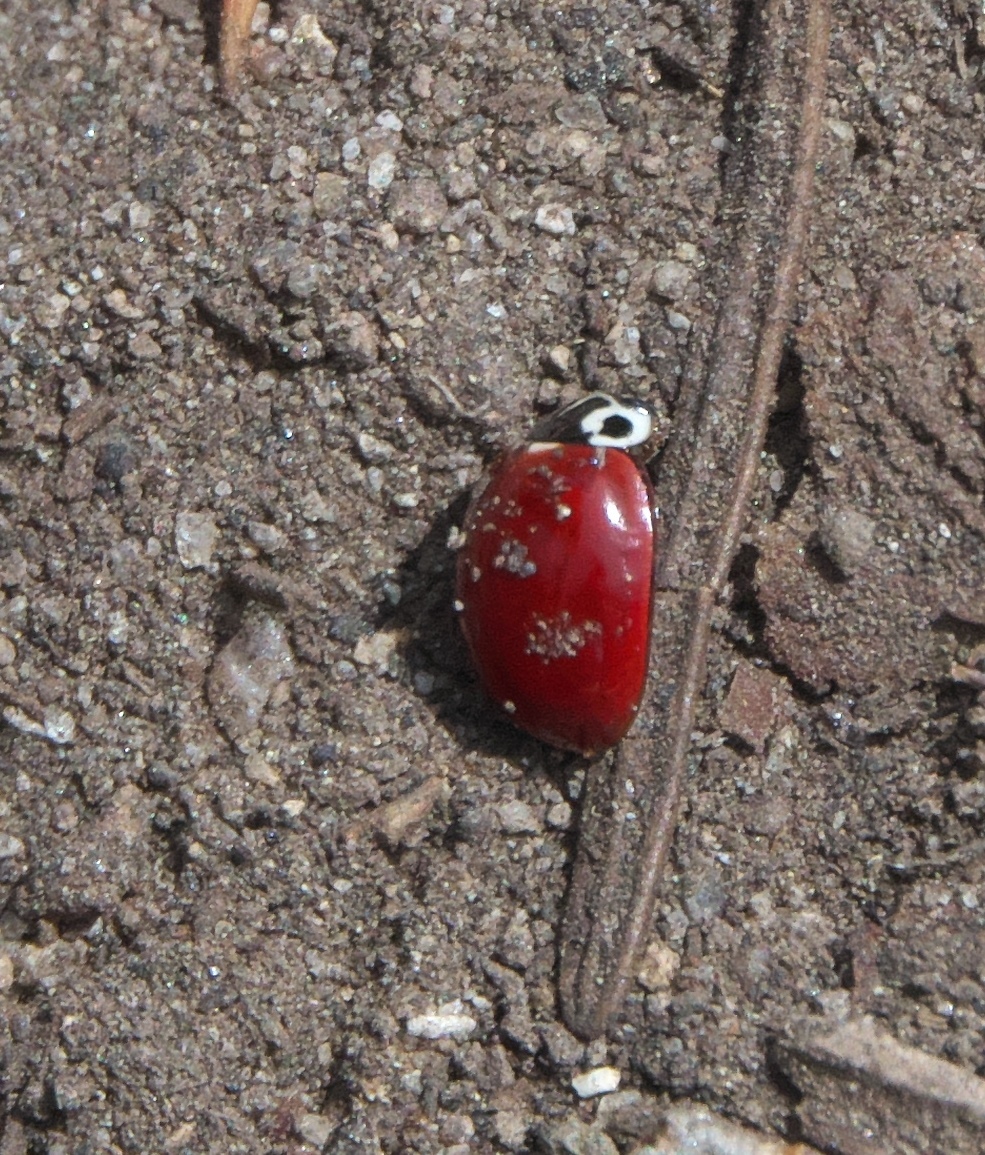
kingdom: Animalia
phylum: Arthropoda
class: Insecta
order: Coleoptera
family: Coccinellidae
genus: Cycloneda
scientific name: Cycloneda polita
